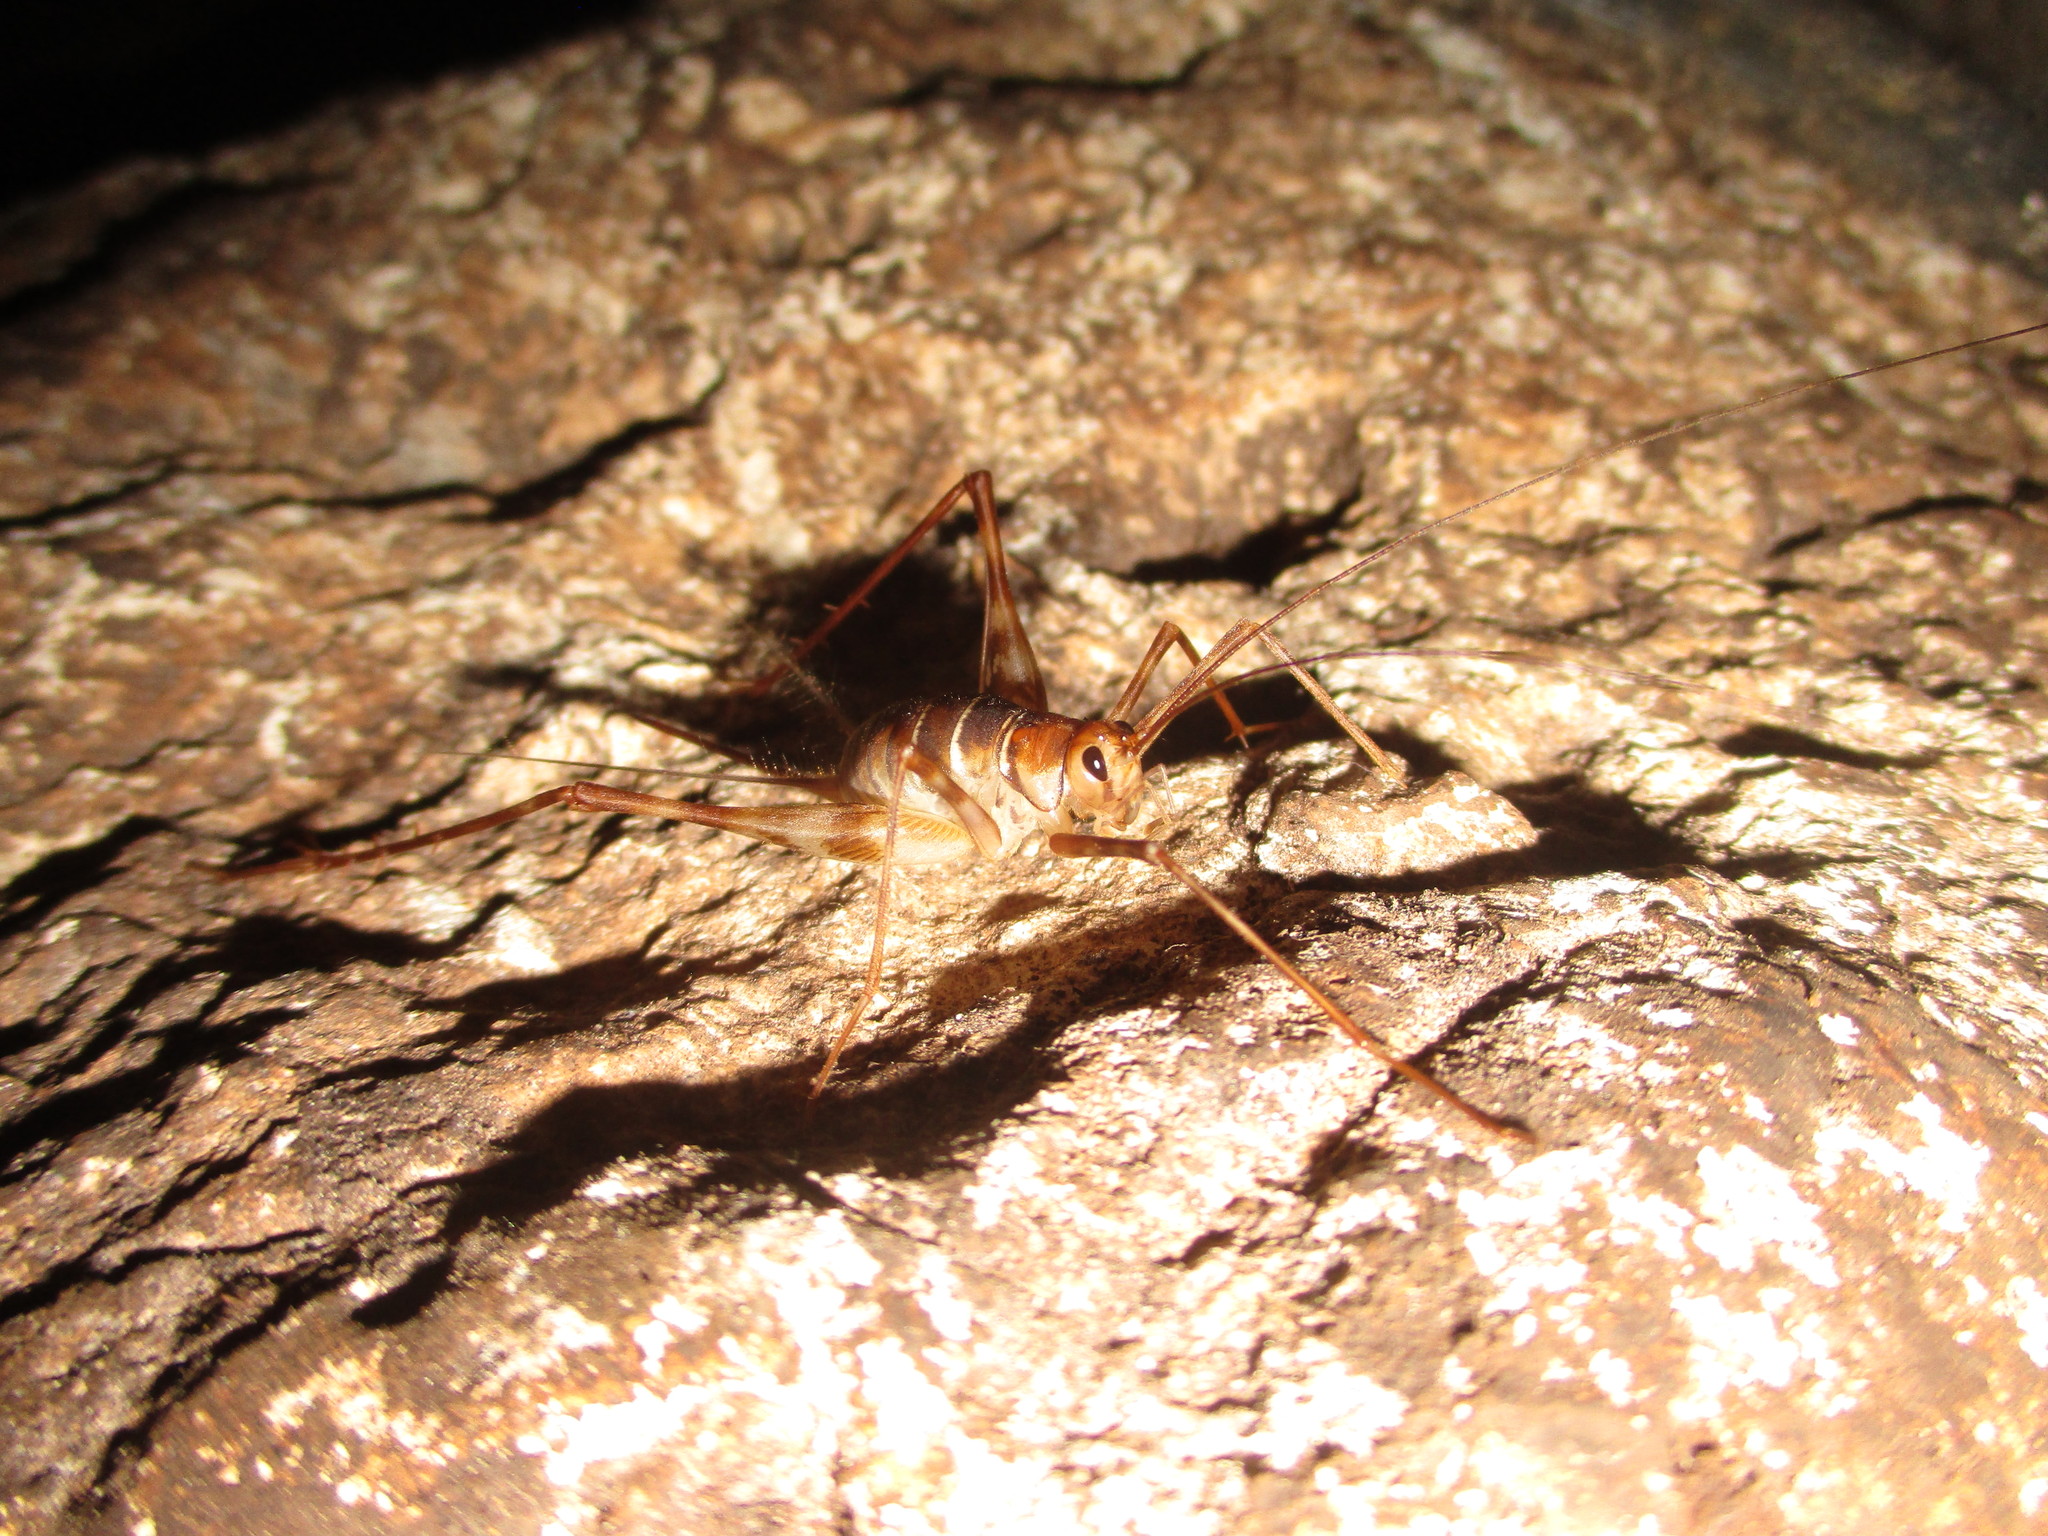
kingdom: Animalia
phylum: Arthropoda
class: Insecta
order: Orthoptera
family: Phalangopsidae
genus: Mayagryllus
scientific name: Mayagryllus yucatanus
